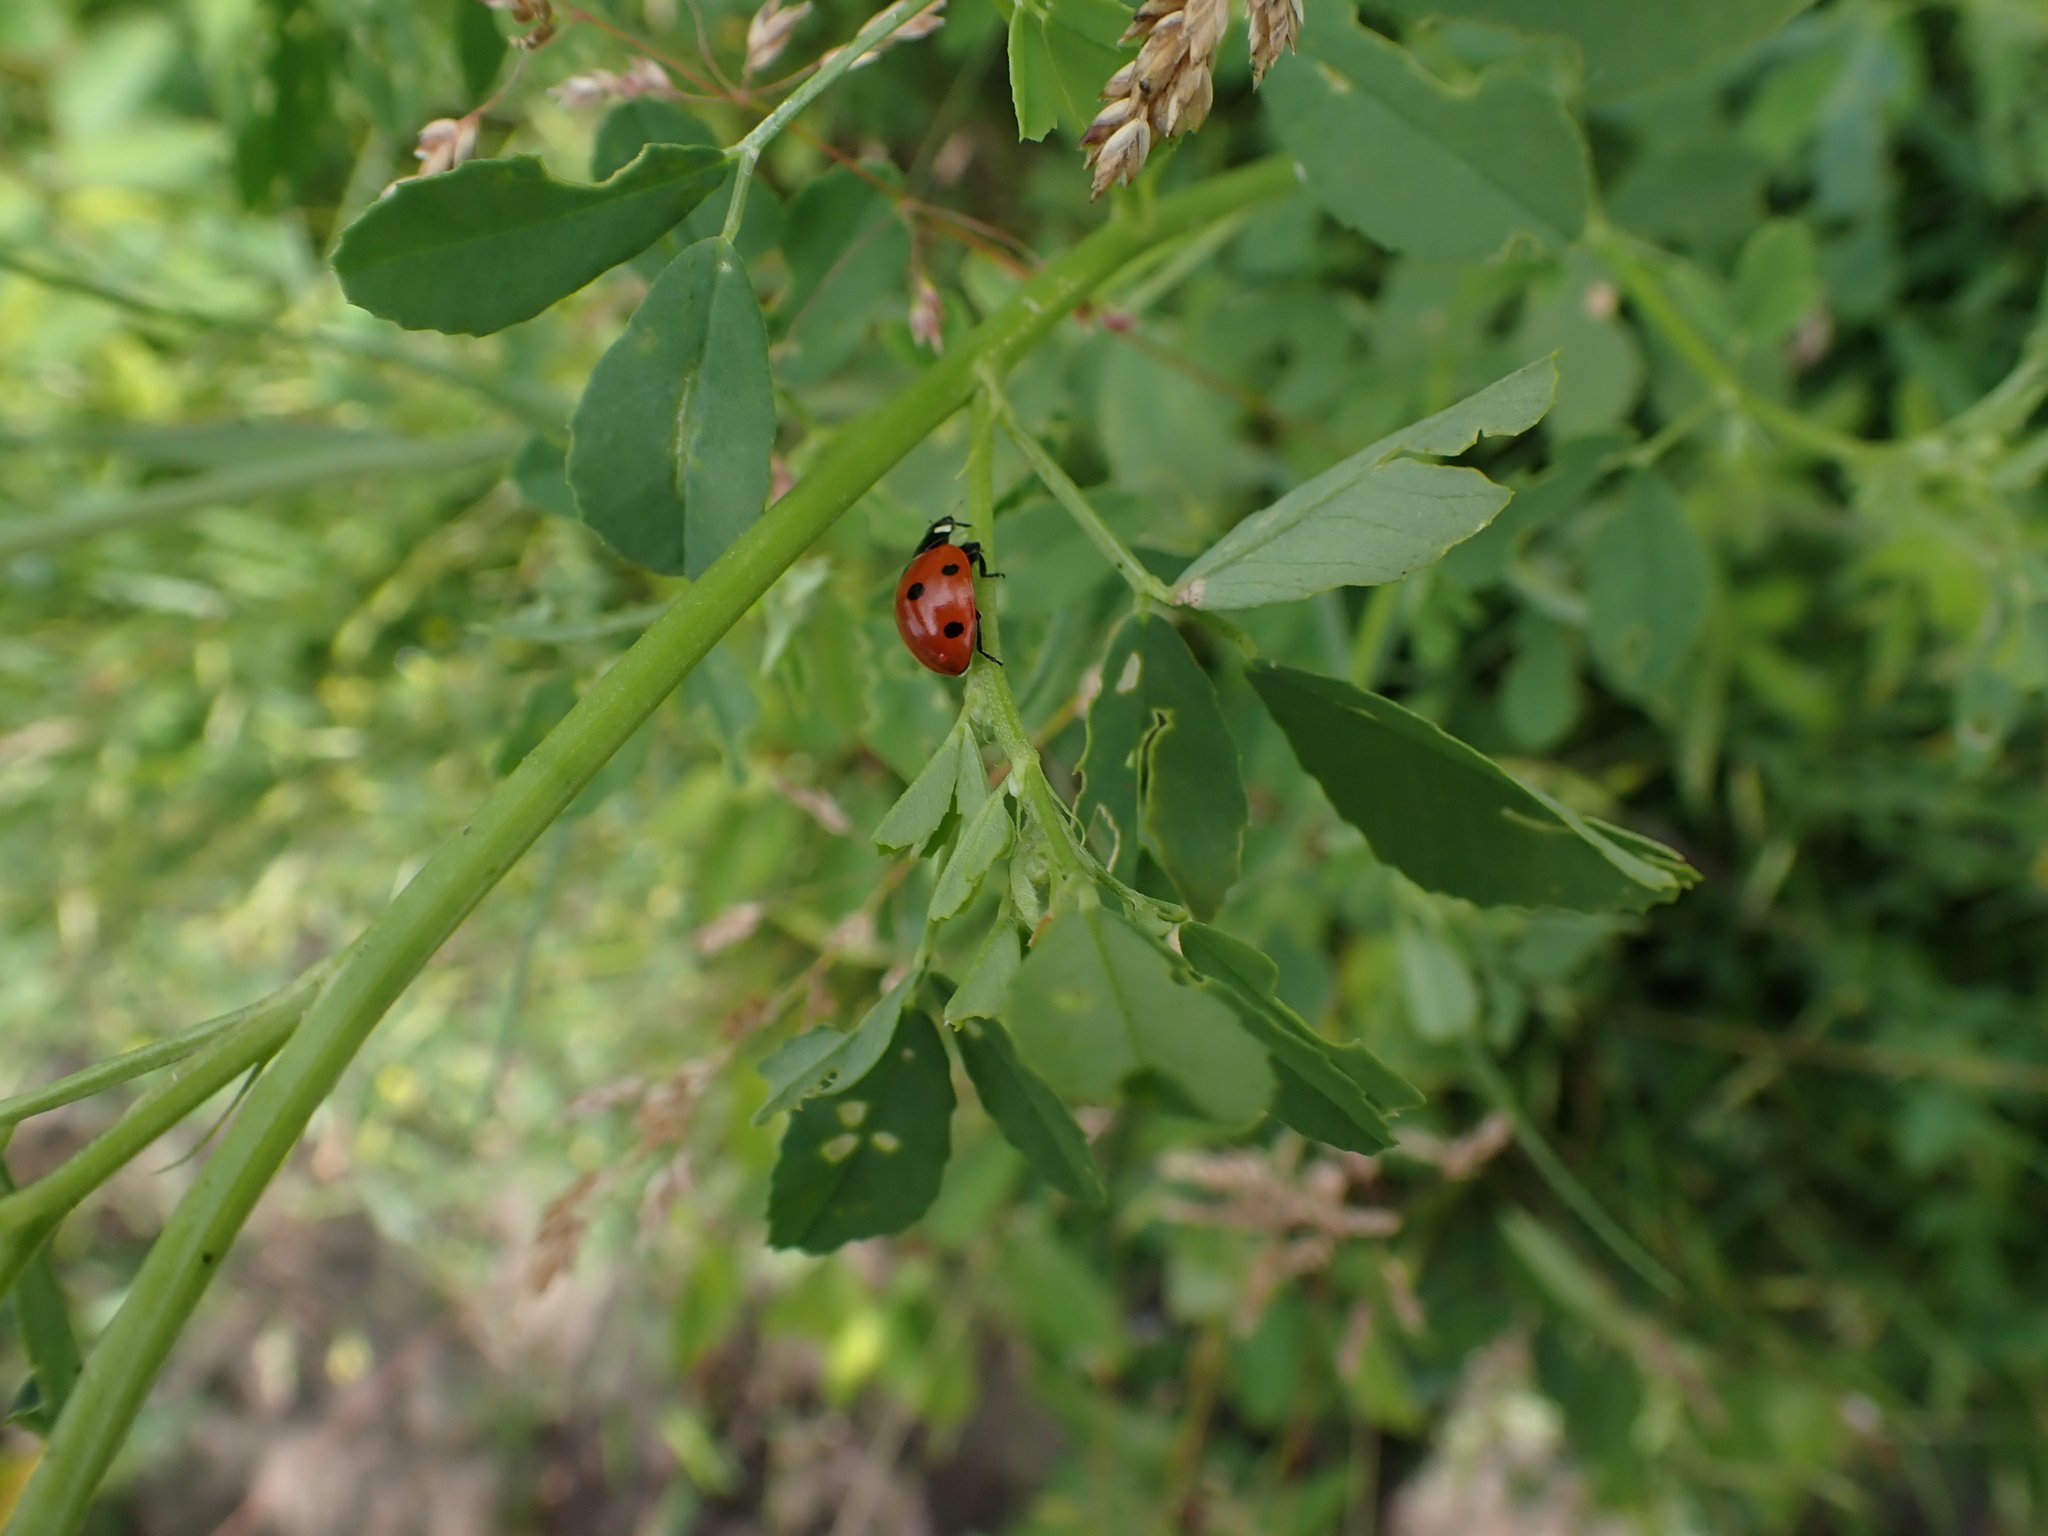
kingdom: Animalia
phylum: Arthropoda
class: Insecta
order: Coleoptera
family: Coccinellidae
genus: Coccinella
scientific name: Coccinella septempunctata
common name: Sevenspotted lady beetle
